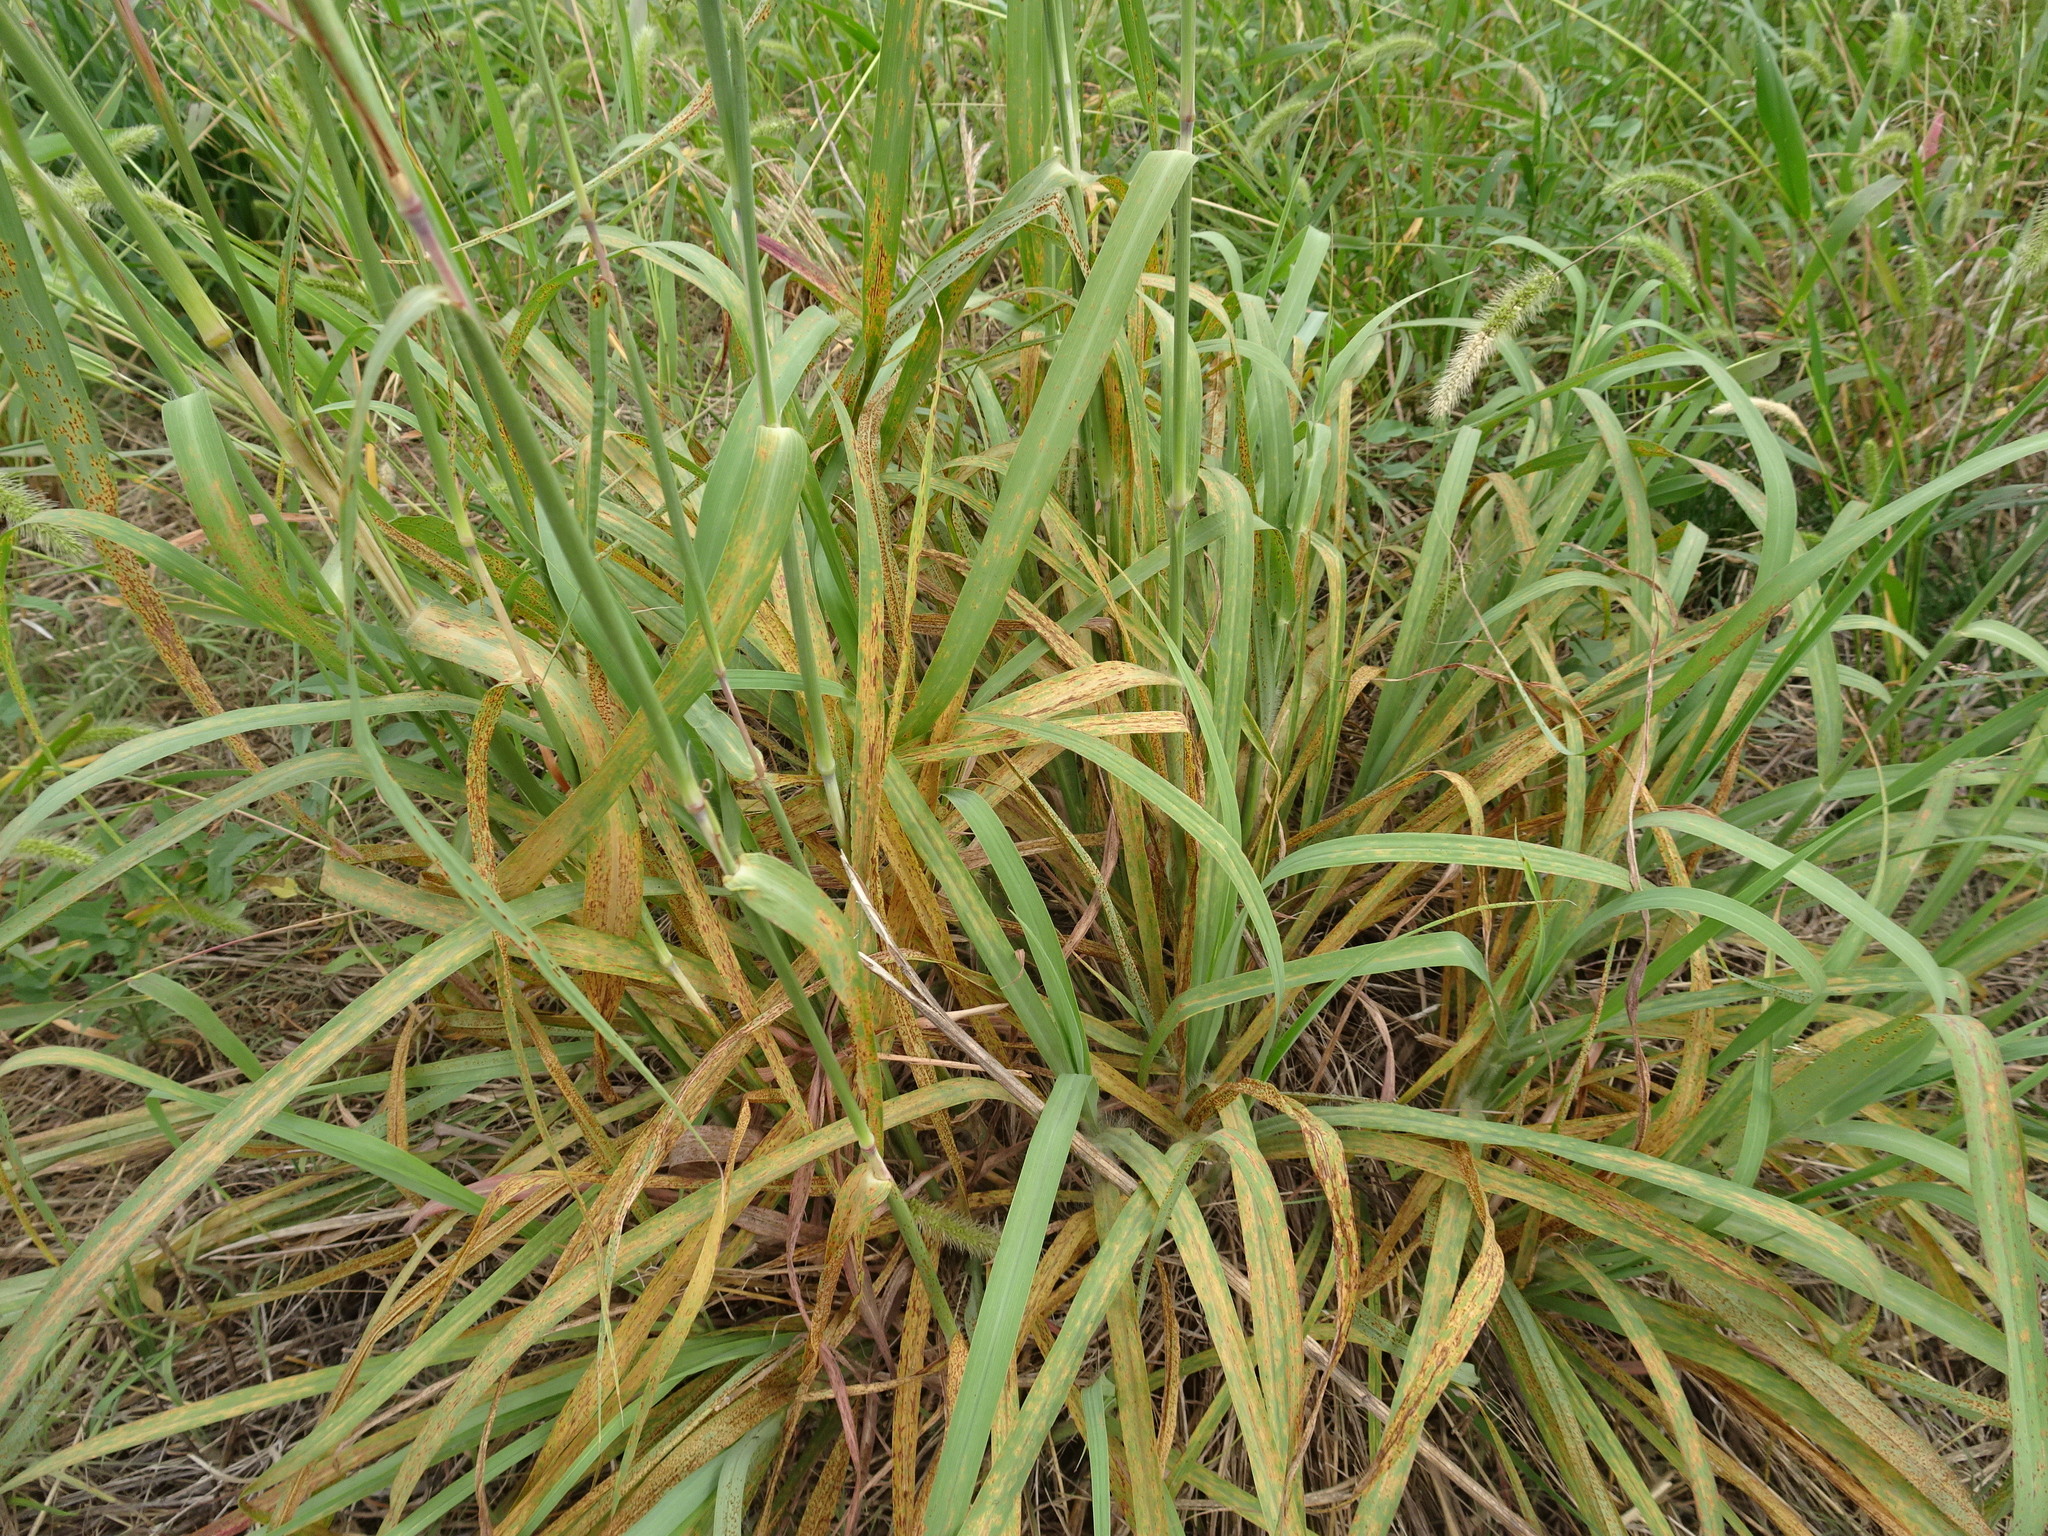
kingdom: Plantae
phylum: Tracheophyta
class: Liliopsida
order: Poales
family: Poaceae
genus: Andropogon
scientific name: Andropogon gerardi
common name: Big bluestem
